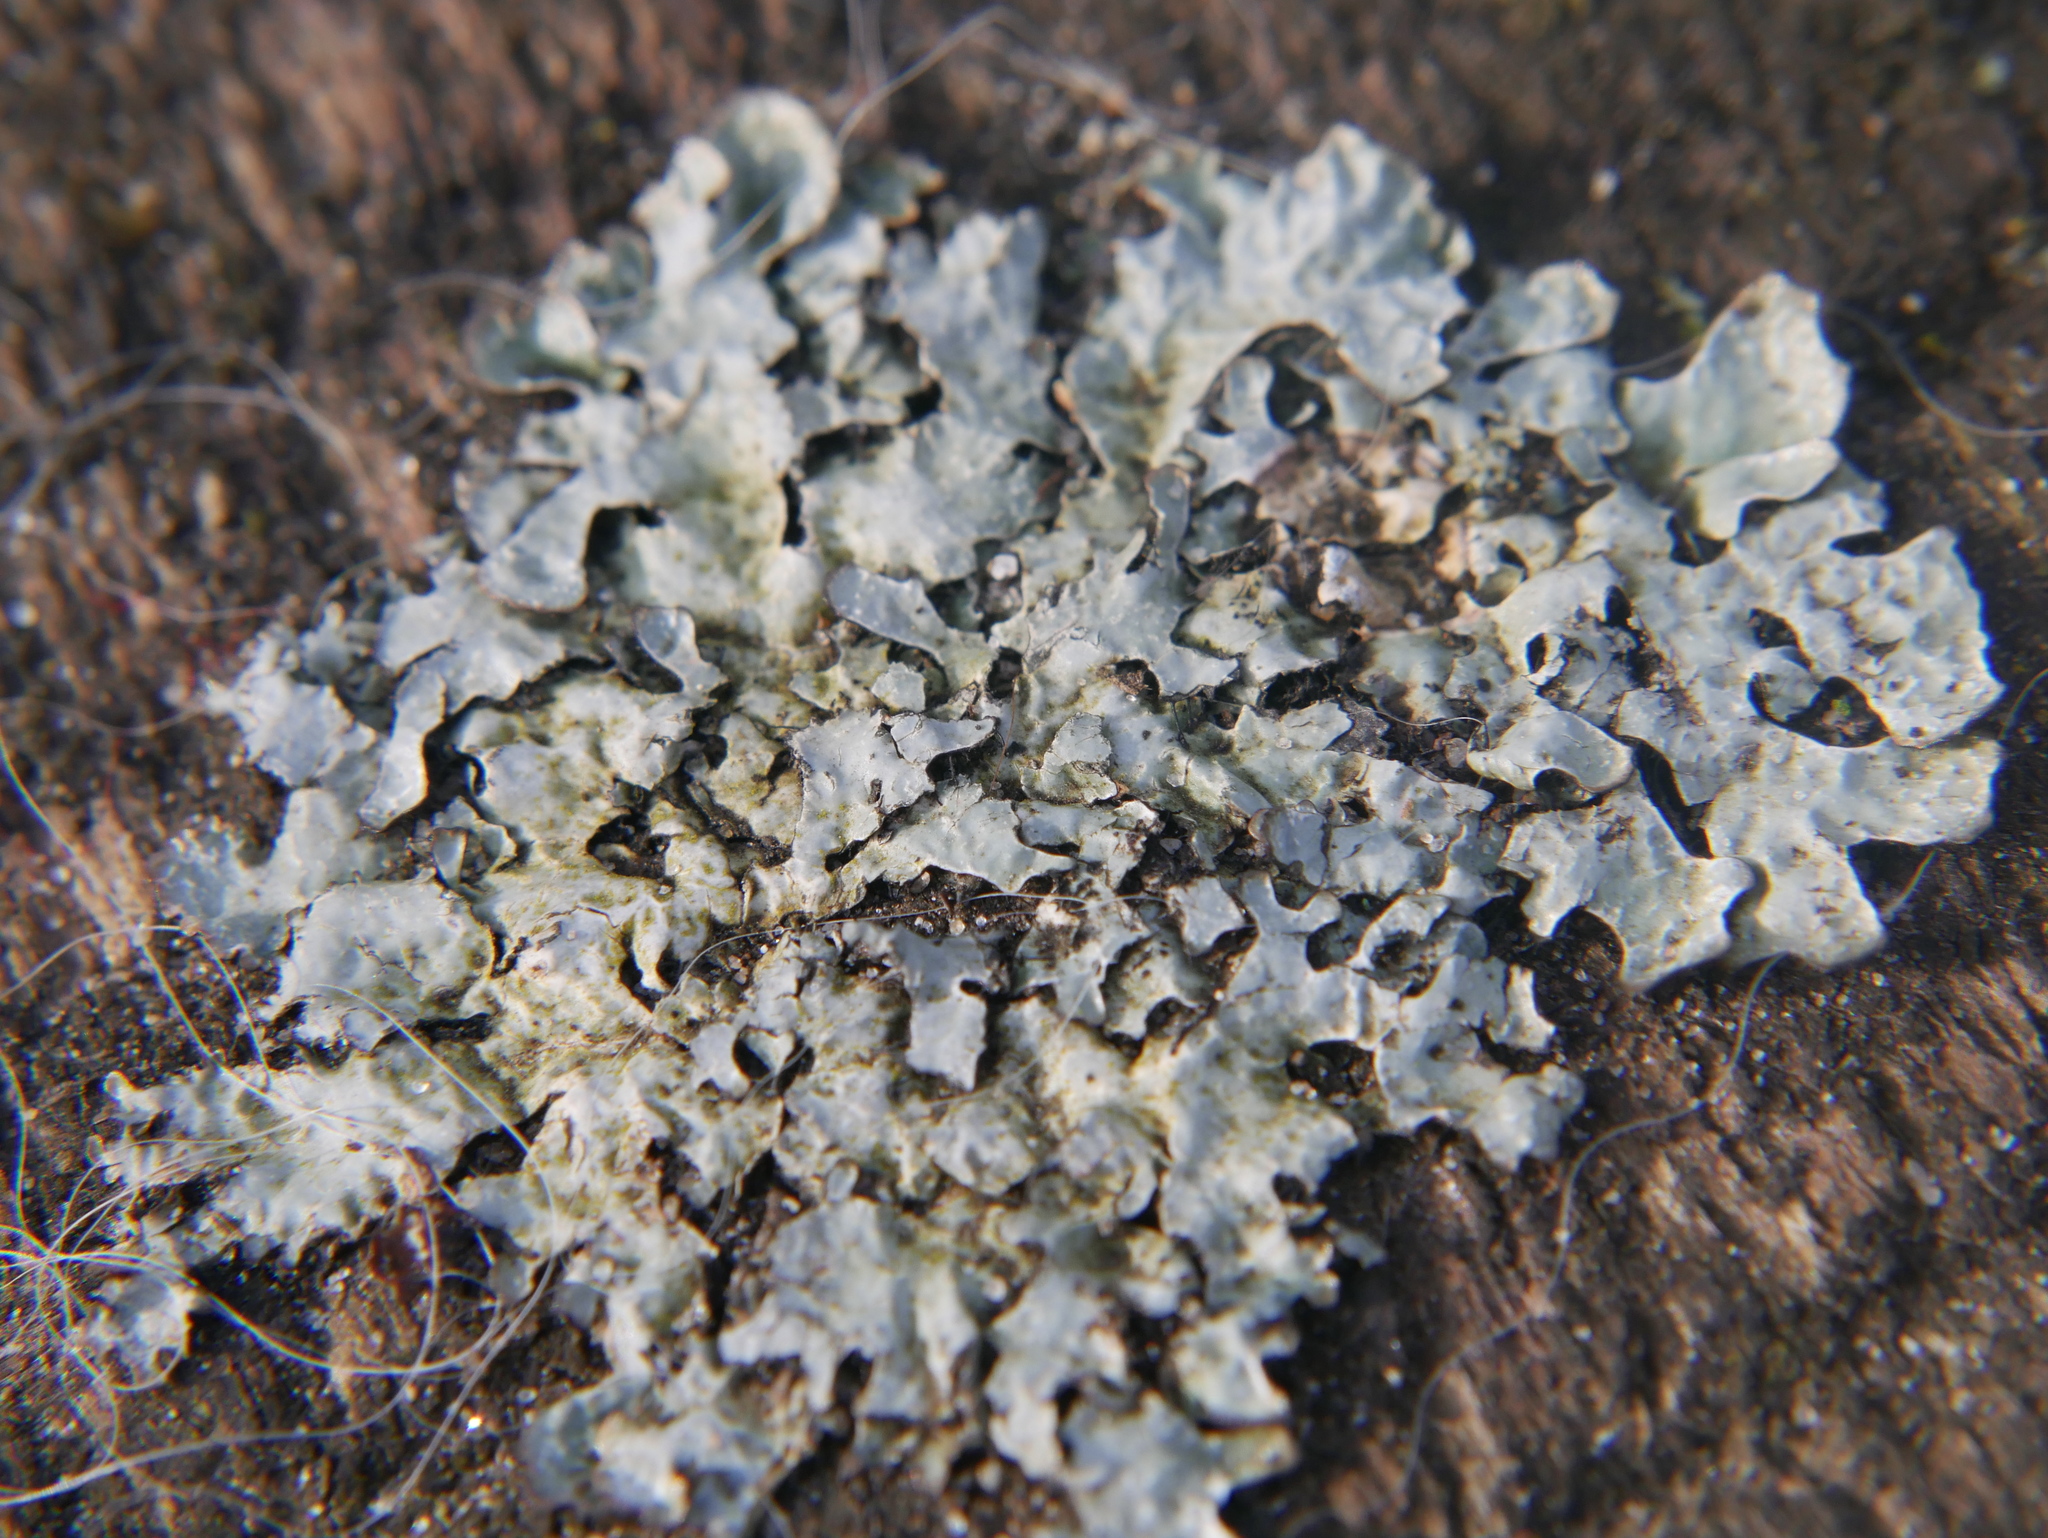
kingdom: Fungi
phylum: Ascomycota
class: Lecanoromycetes
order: Lecanorales
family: Parmeliaceae
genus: Parmelia
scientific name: Parmelia sulcata
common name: Netted shield lichen
